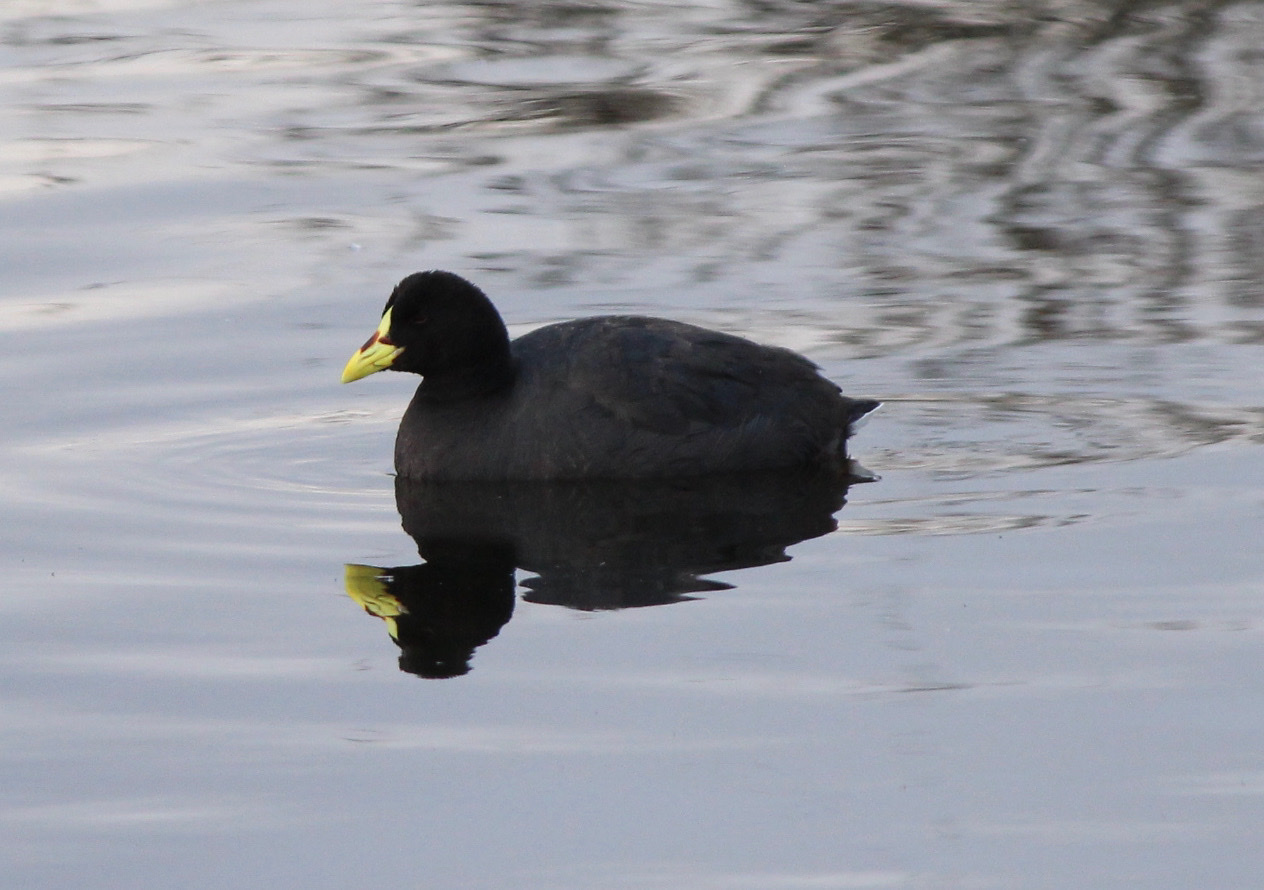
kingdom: Animalia
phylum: Chordata
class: Aves
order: Gruiformes
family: Rallidae
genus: Fulica
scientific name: Fulica armillata
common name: Red-gartered coot
